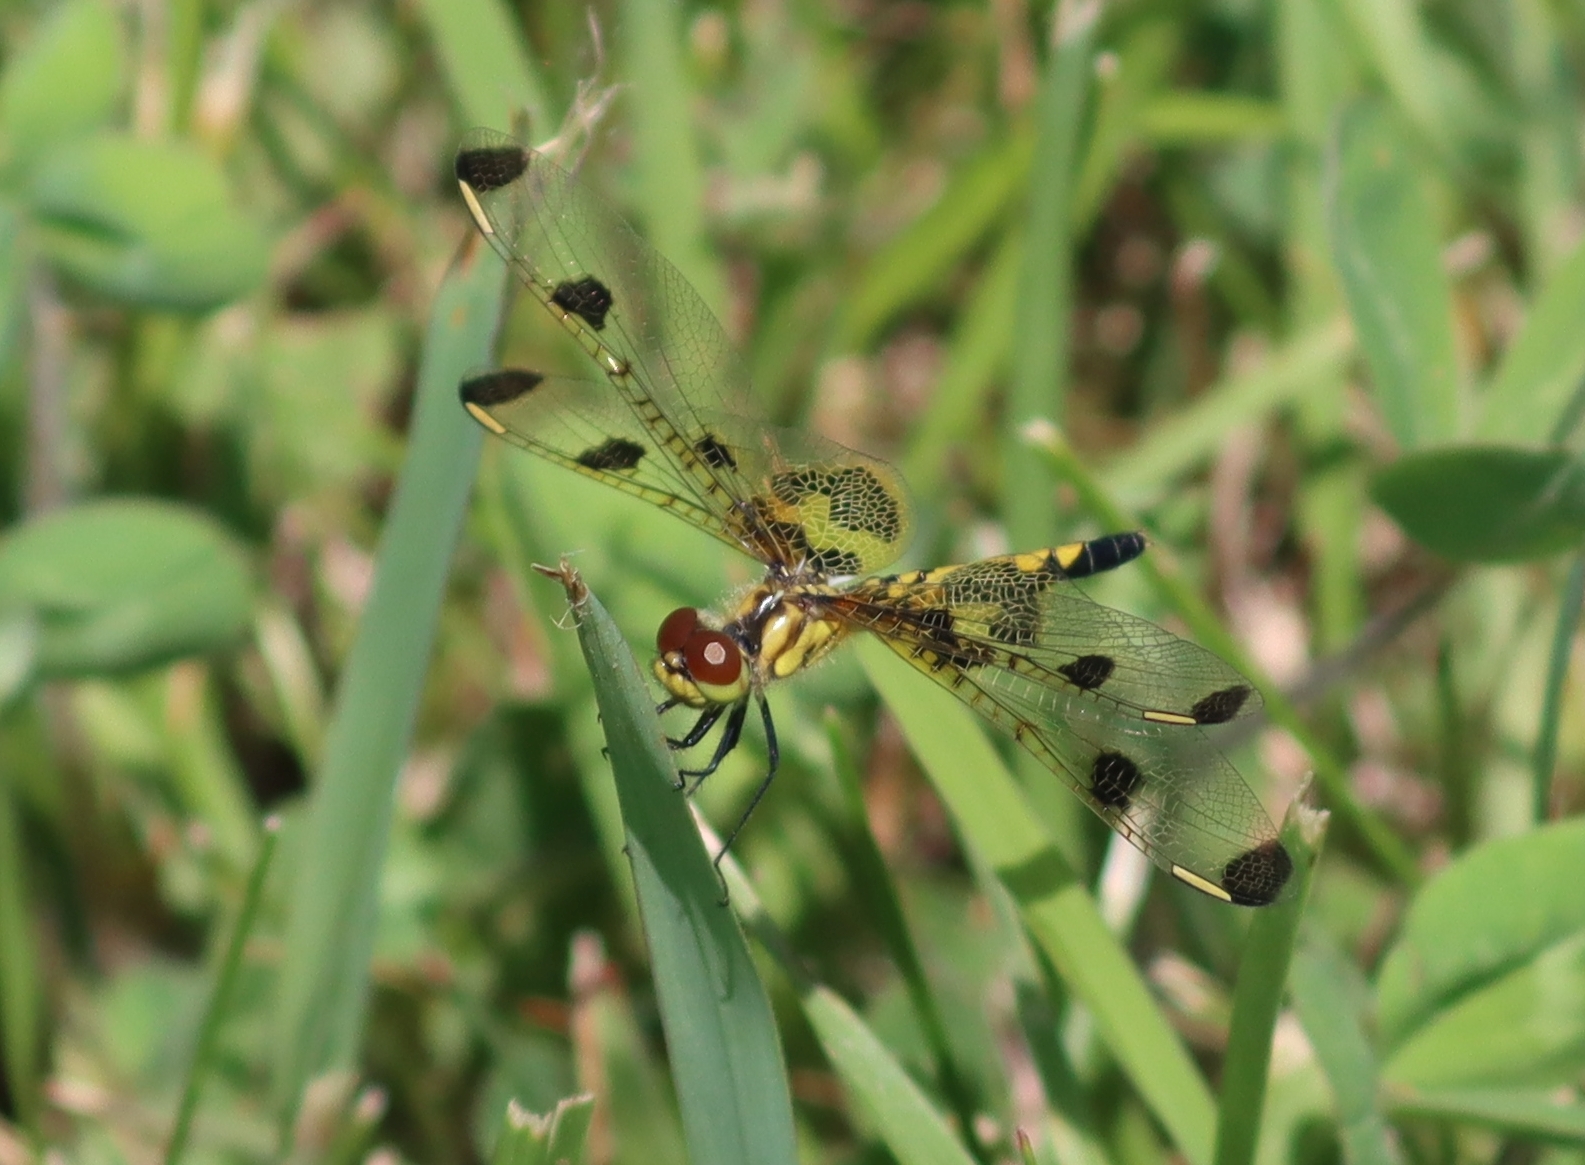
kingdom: Animalia
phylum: Arthropoda
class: Insecta
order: Odonata
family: Libellulidae
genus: Celithemis
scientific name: Celithemis elisa
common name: Calico pennant
